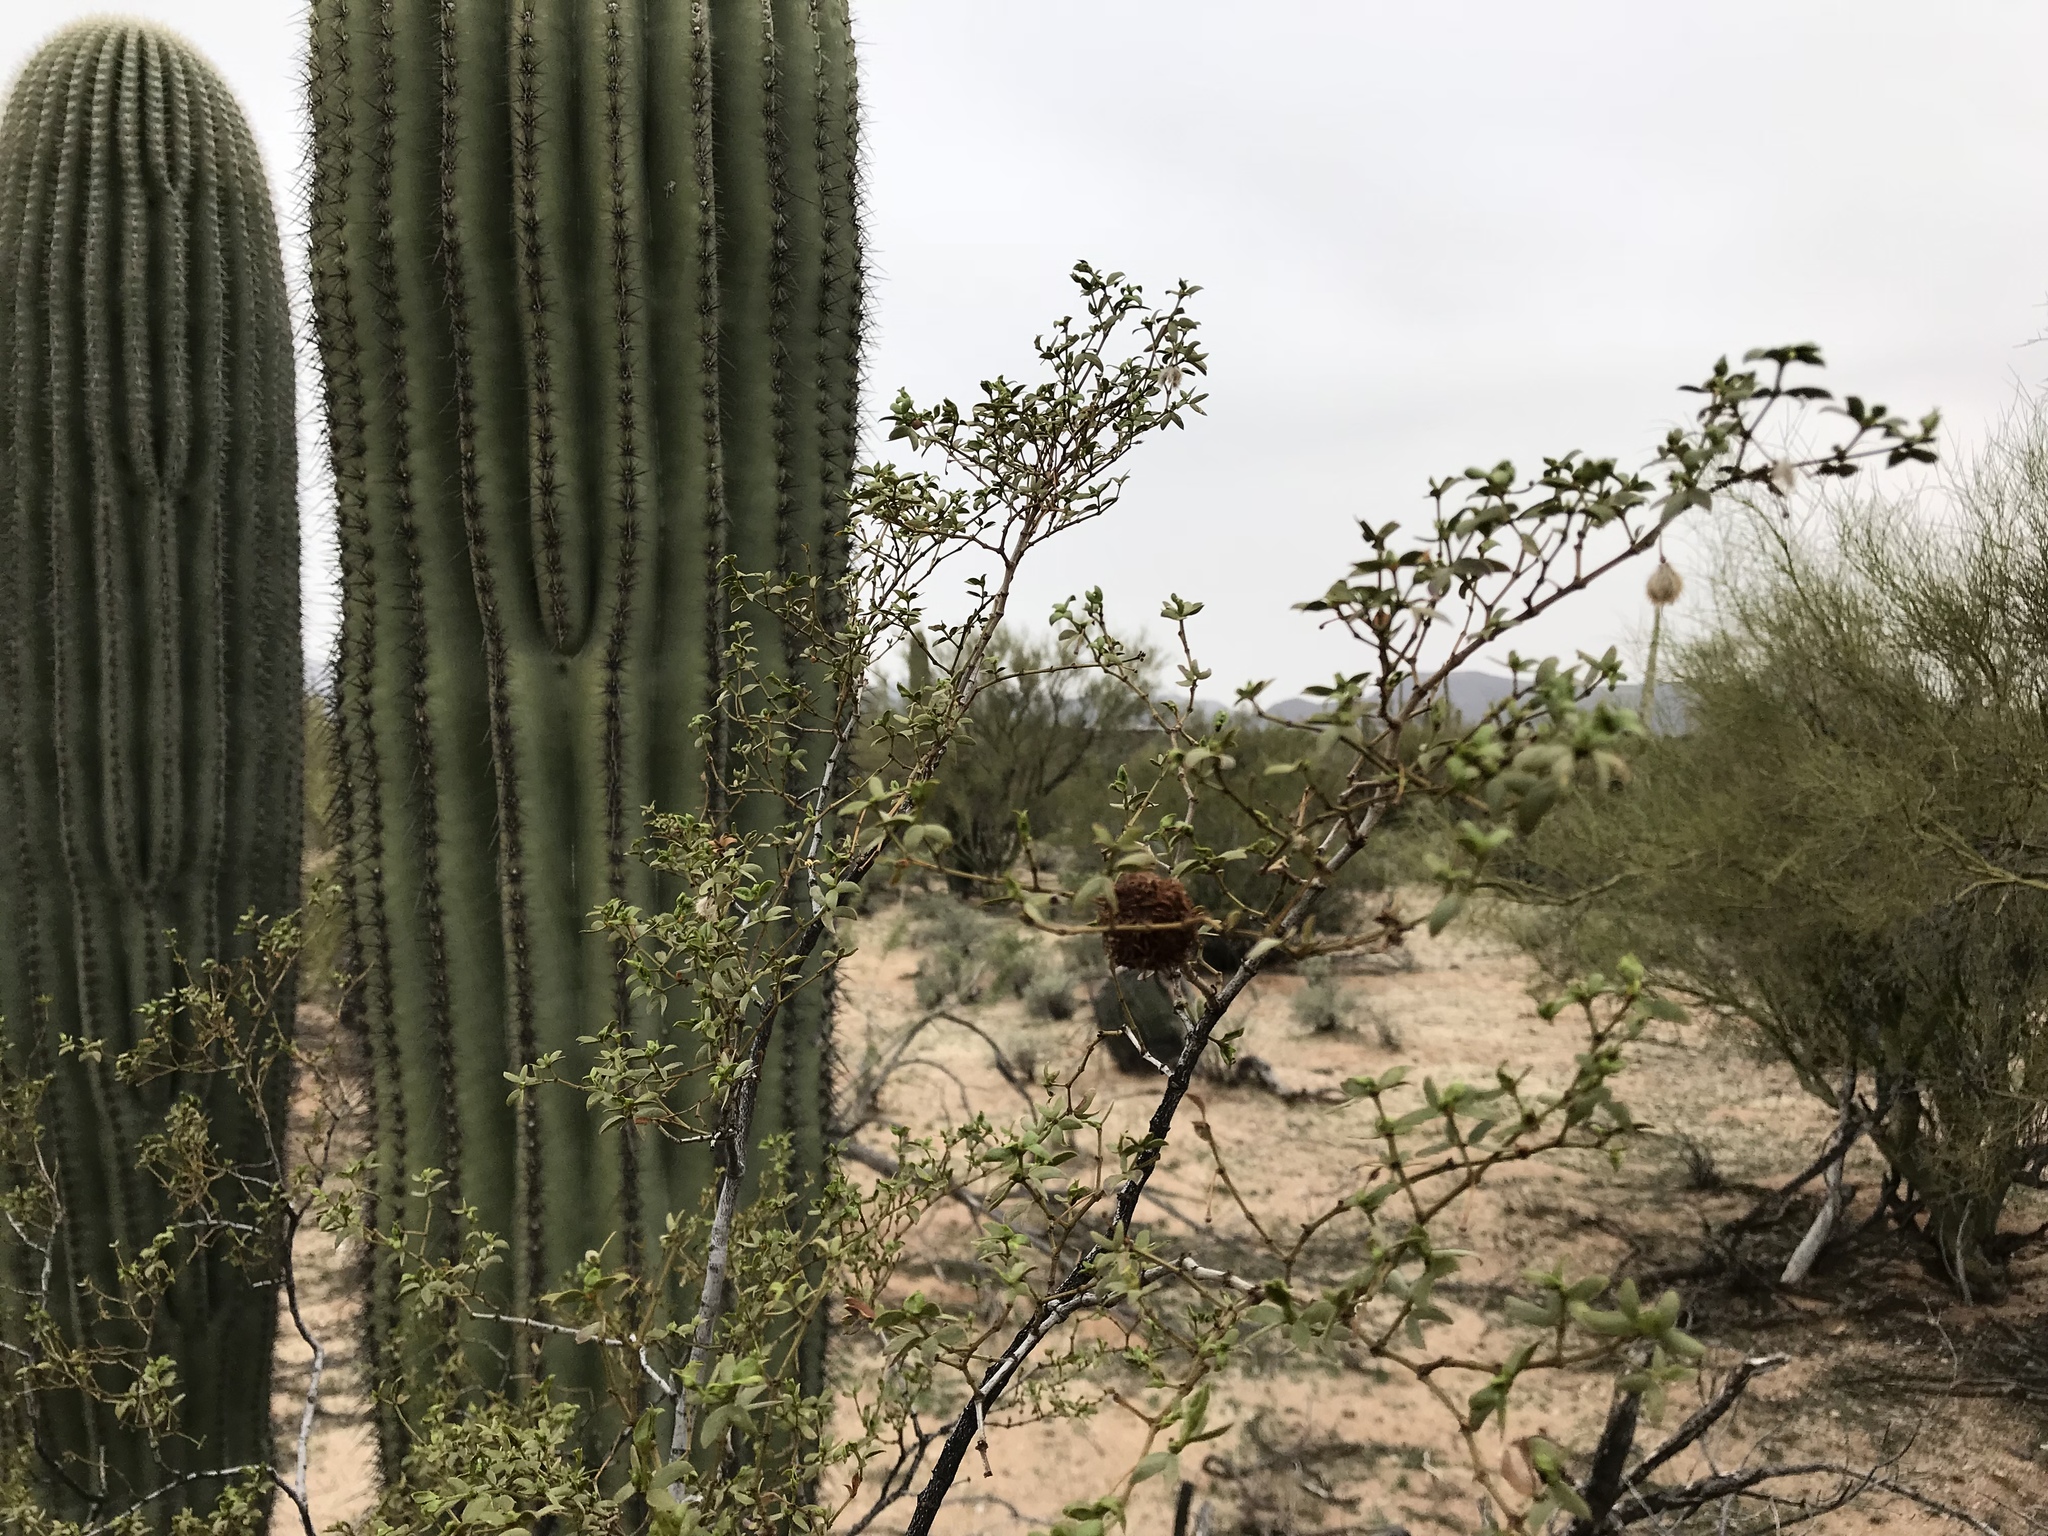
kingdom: Plantae
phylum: Tracheophyta
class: Magnoliopsida
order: Zygophyllales
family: Zygophyllaceae
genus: Larrea
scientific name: Larrea tridentata
